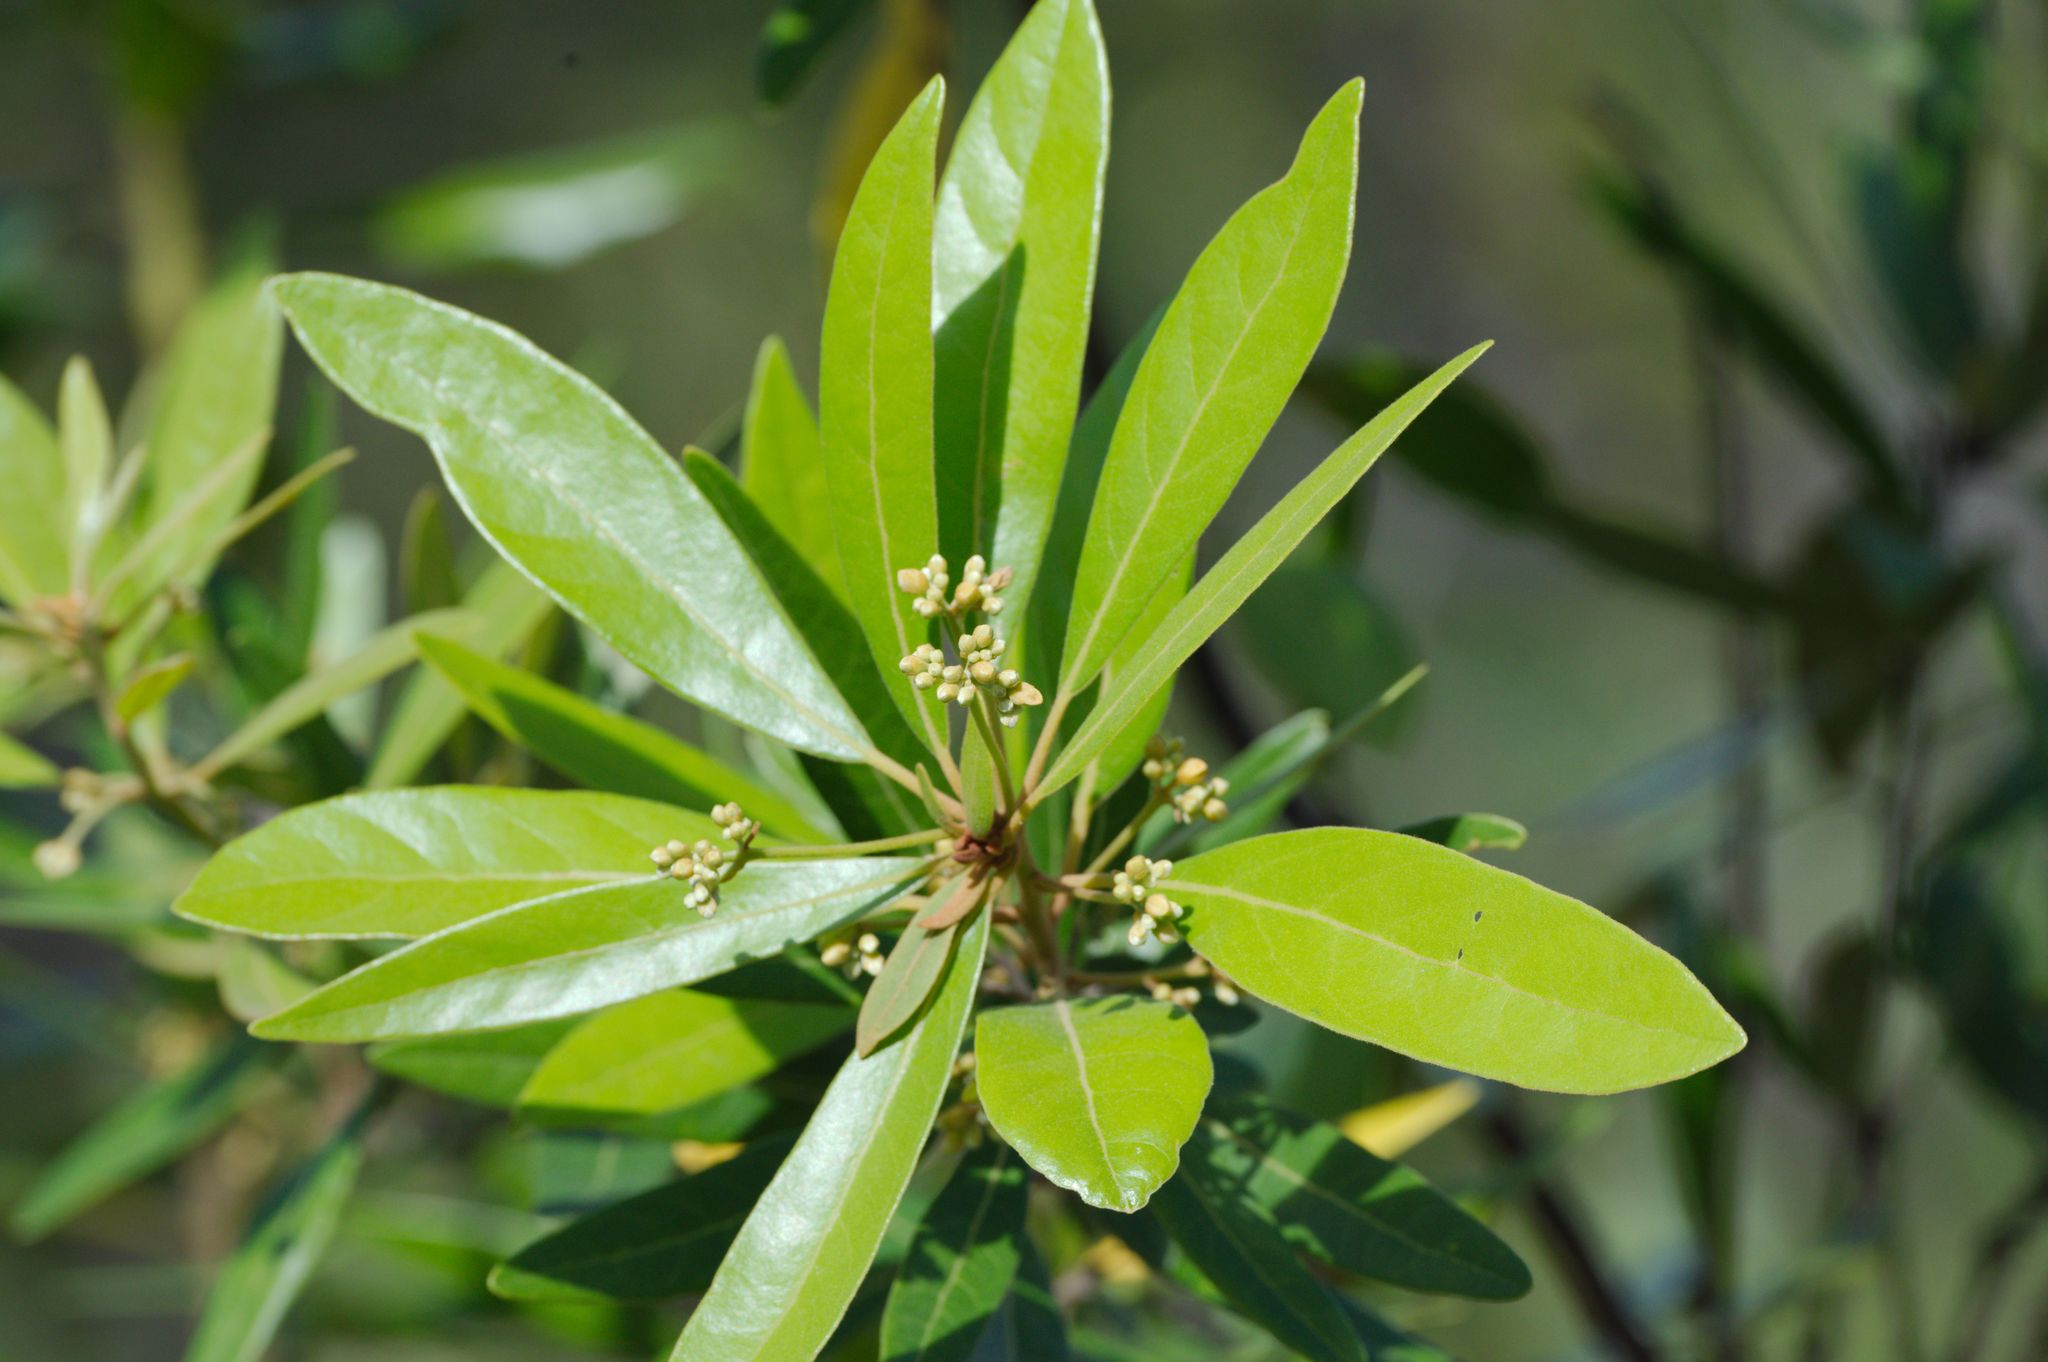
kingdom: Plantae
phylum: Tracheophyta
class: Magnoliopsida
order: Laurales
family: Lauraceae
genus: Persea
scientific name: Persea palustris
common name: Swampbay
